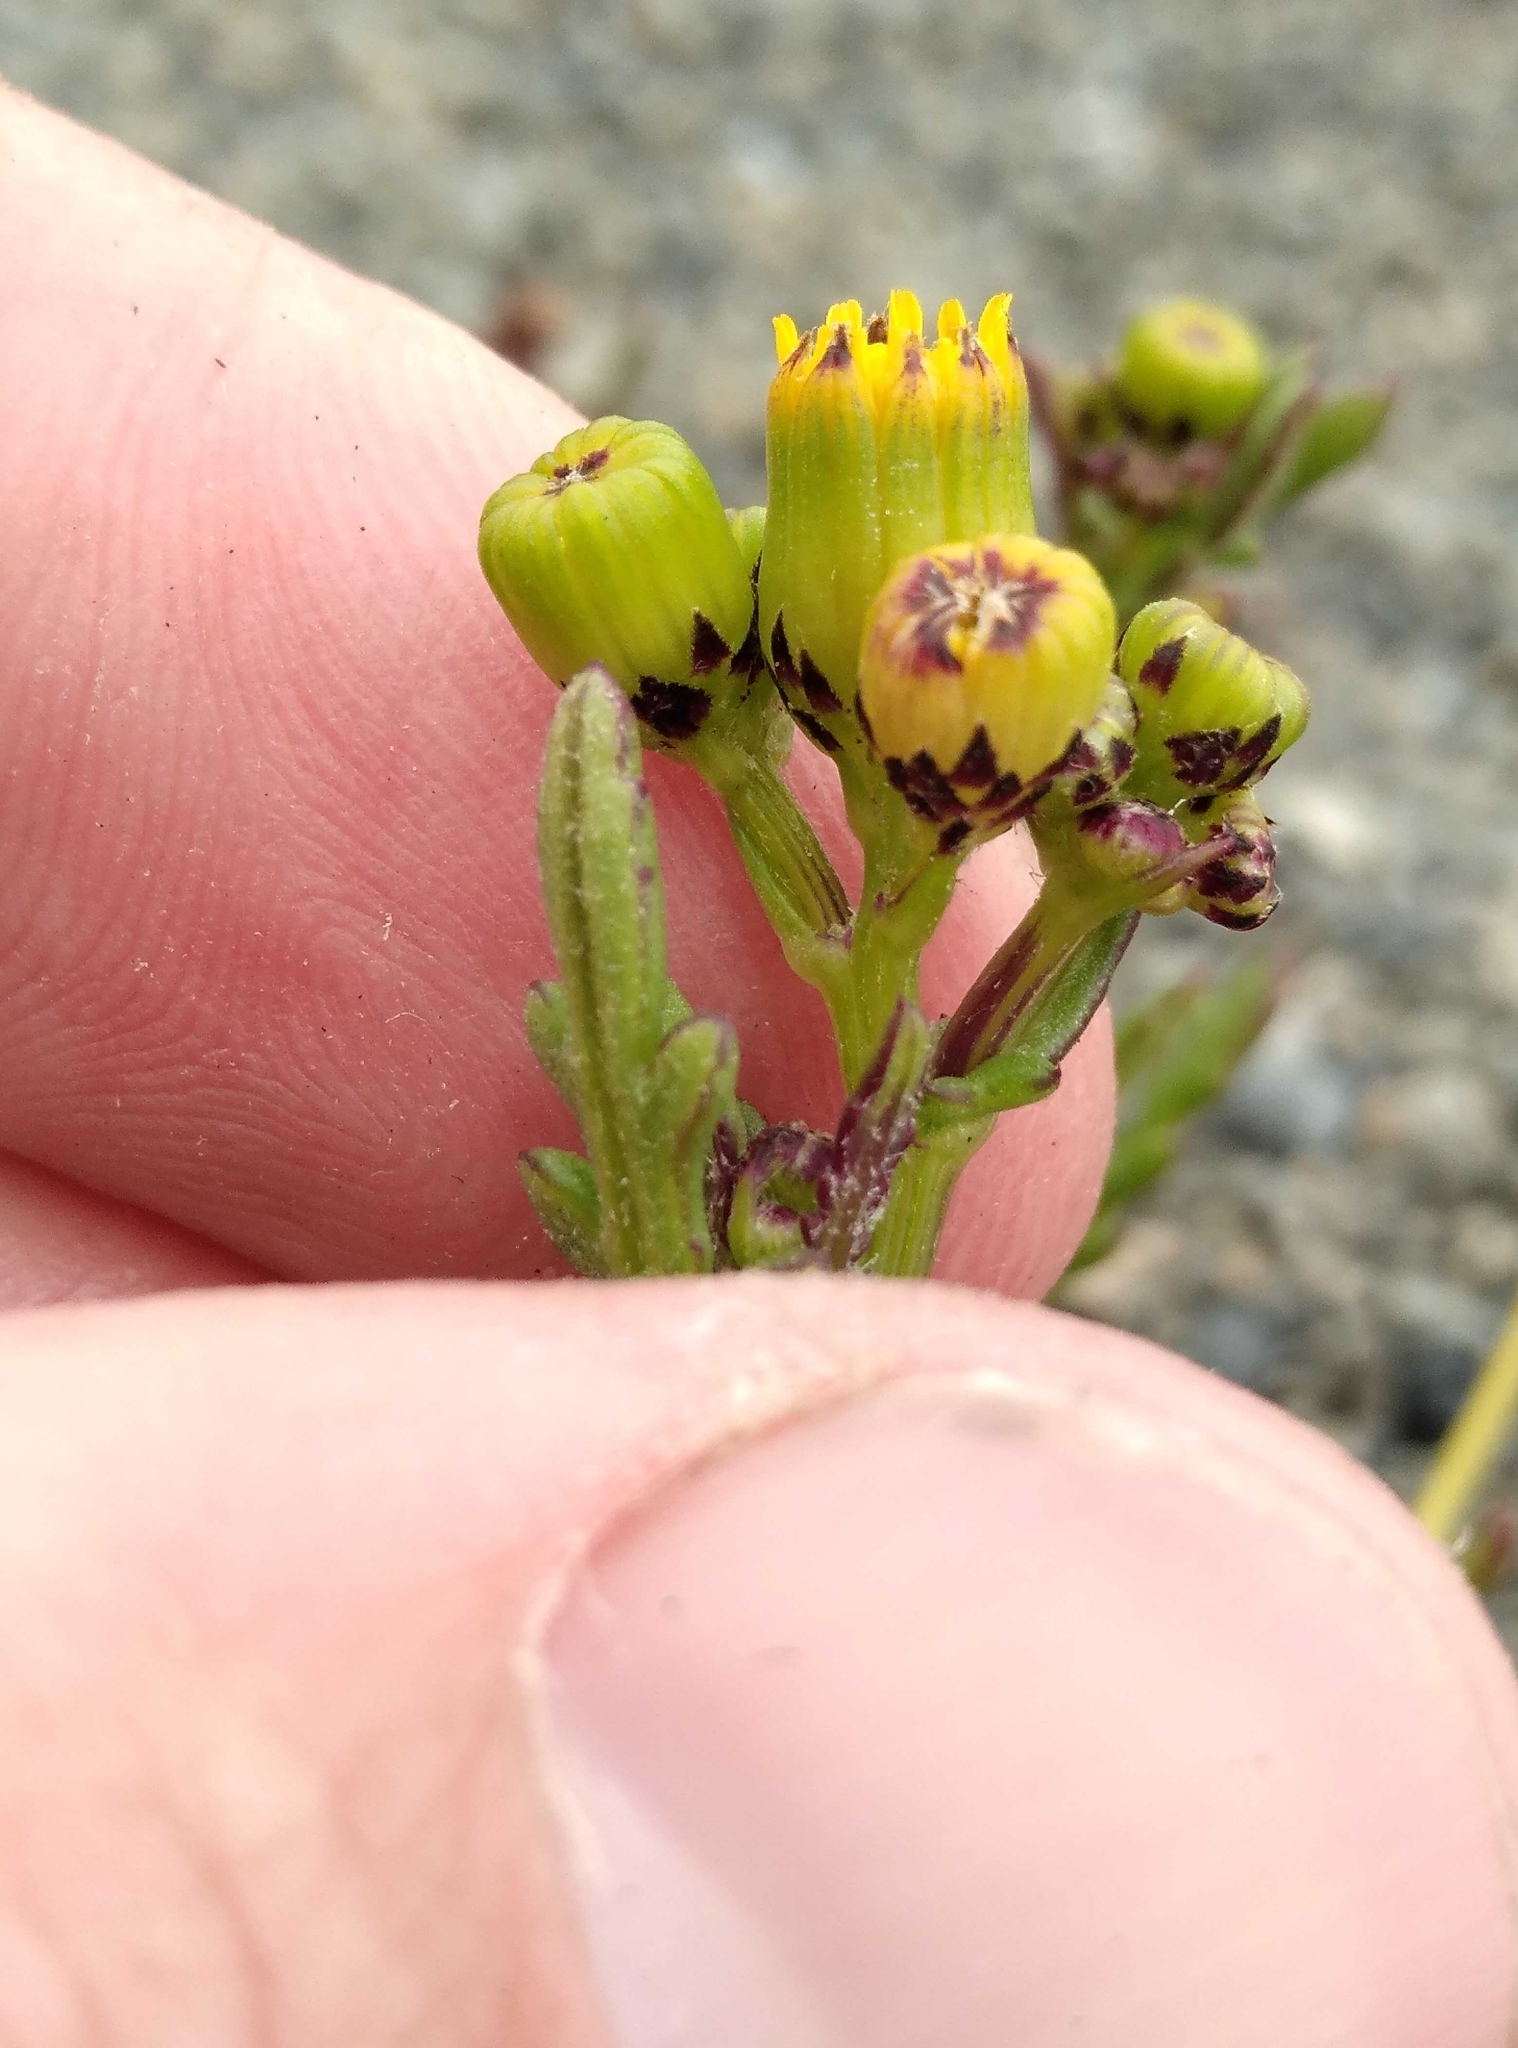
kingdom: Plantae
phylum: Tracheophyta
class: Magnoliopsida
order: Asterales
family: Asteraceae
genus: Senecio
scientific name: Senecio lautus
